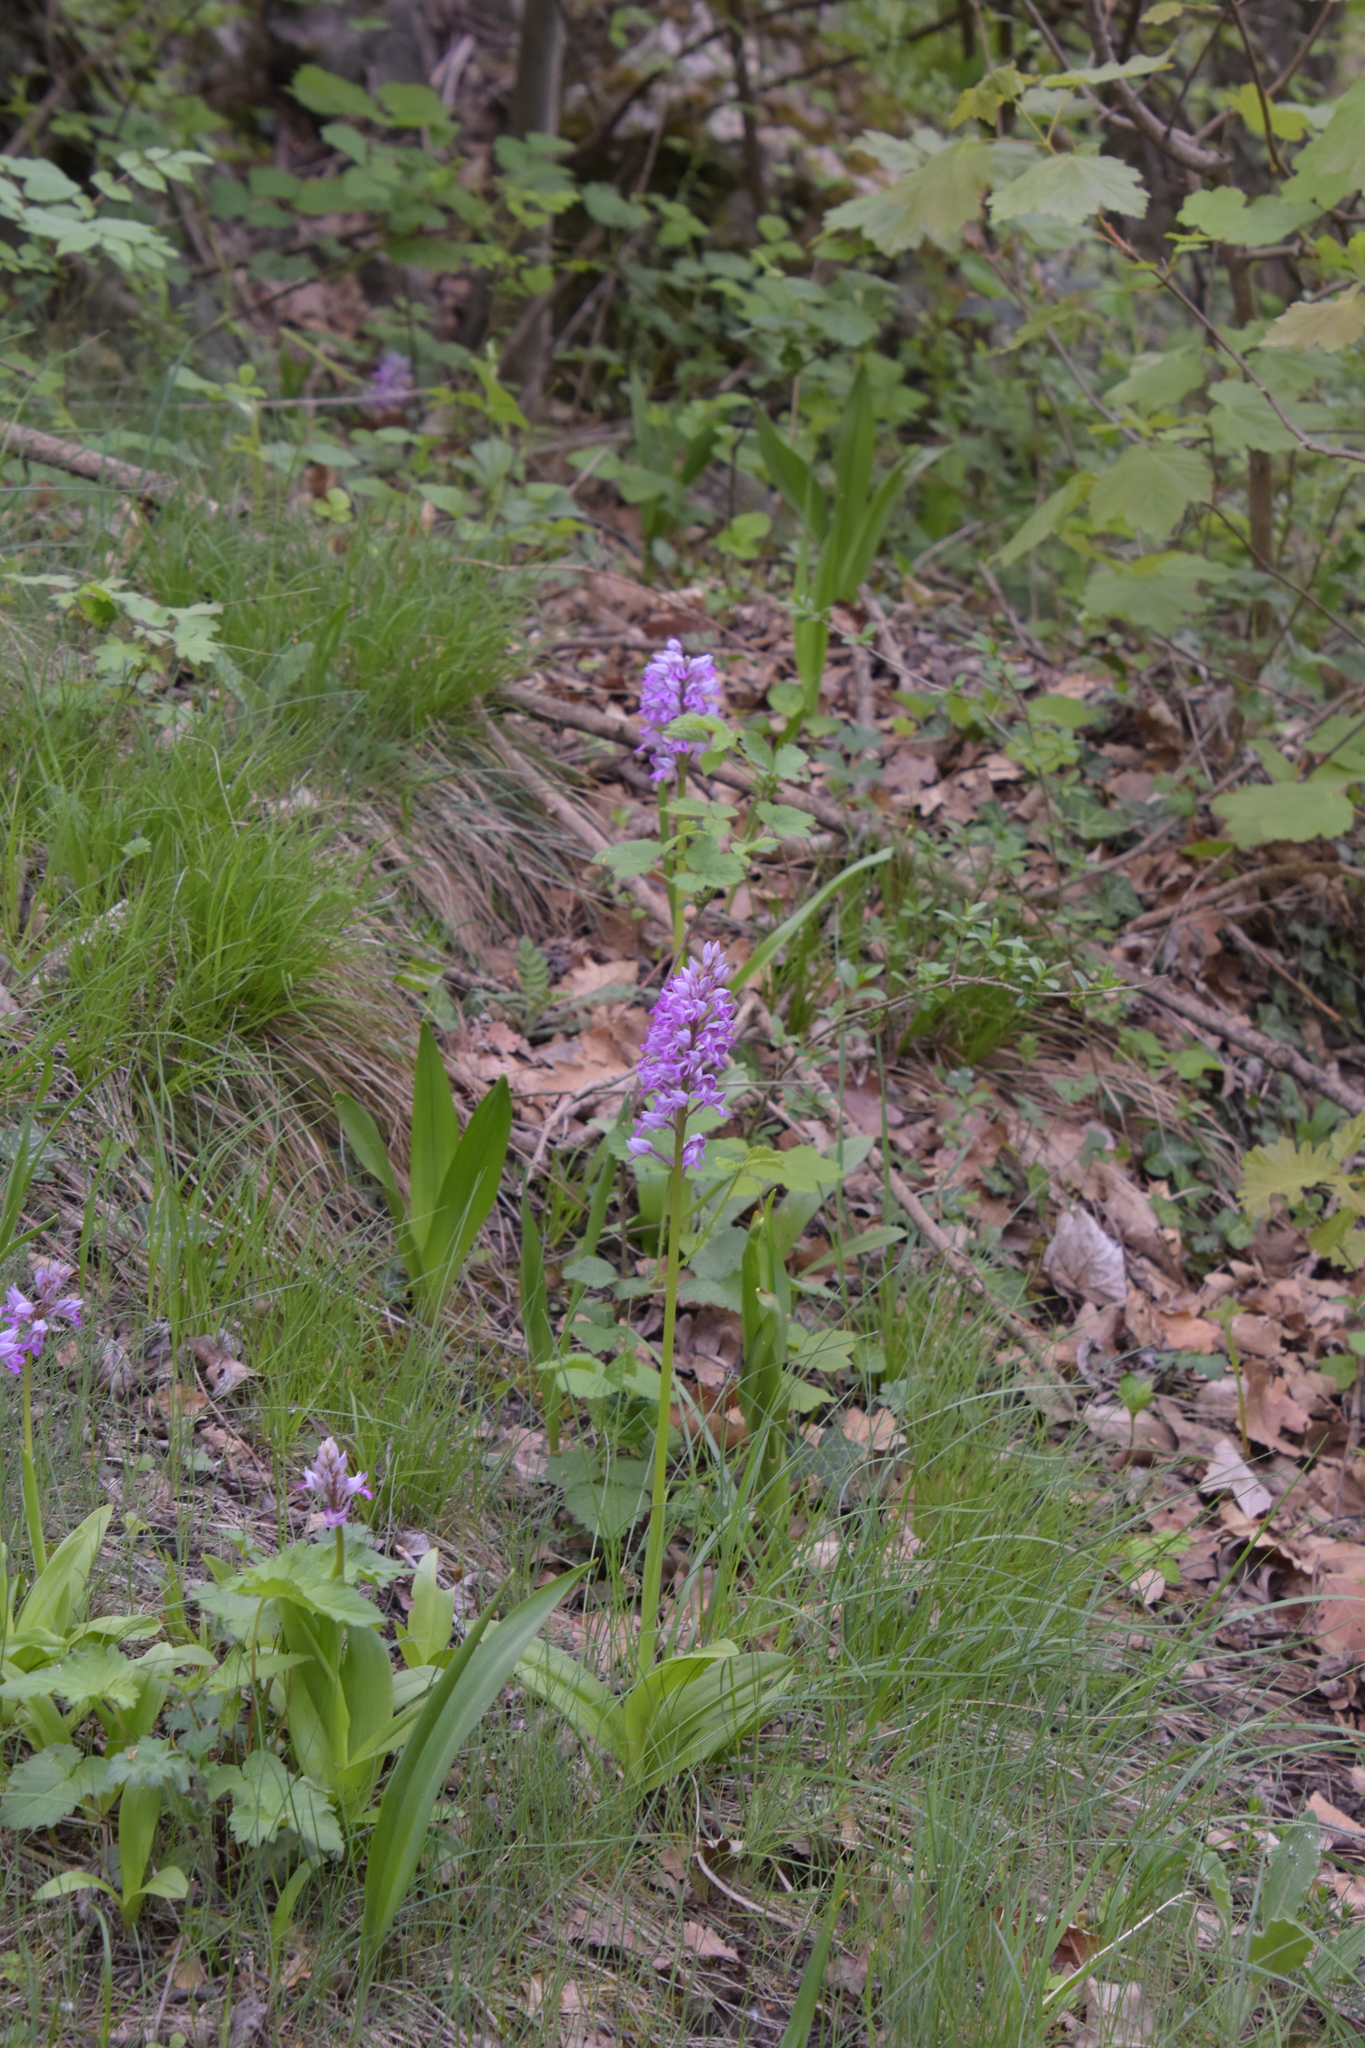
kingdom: Plantae
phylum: Tracheophyta
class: Liliopsida
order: Asparagales
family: Orchidaceae
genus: Orchis
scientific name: Orchis militaris
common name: Military orchid
